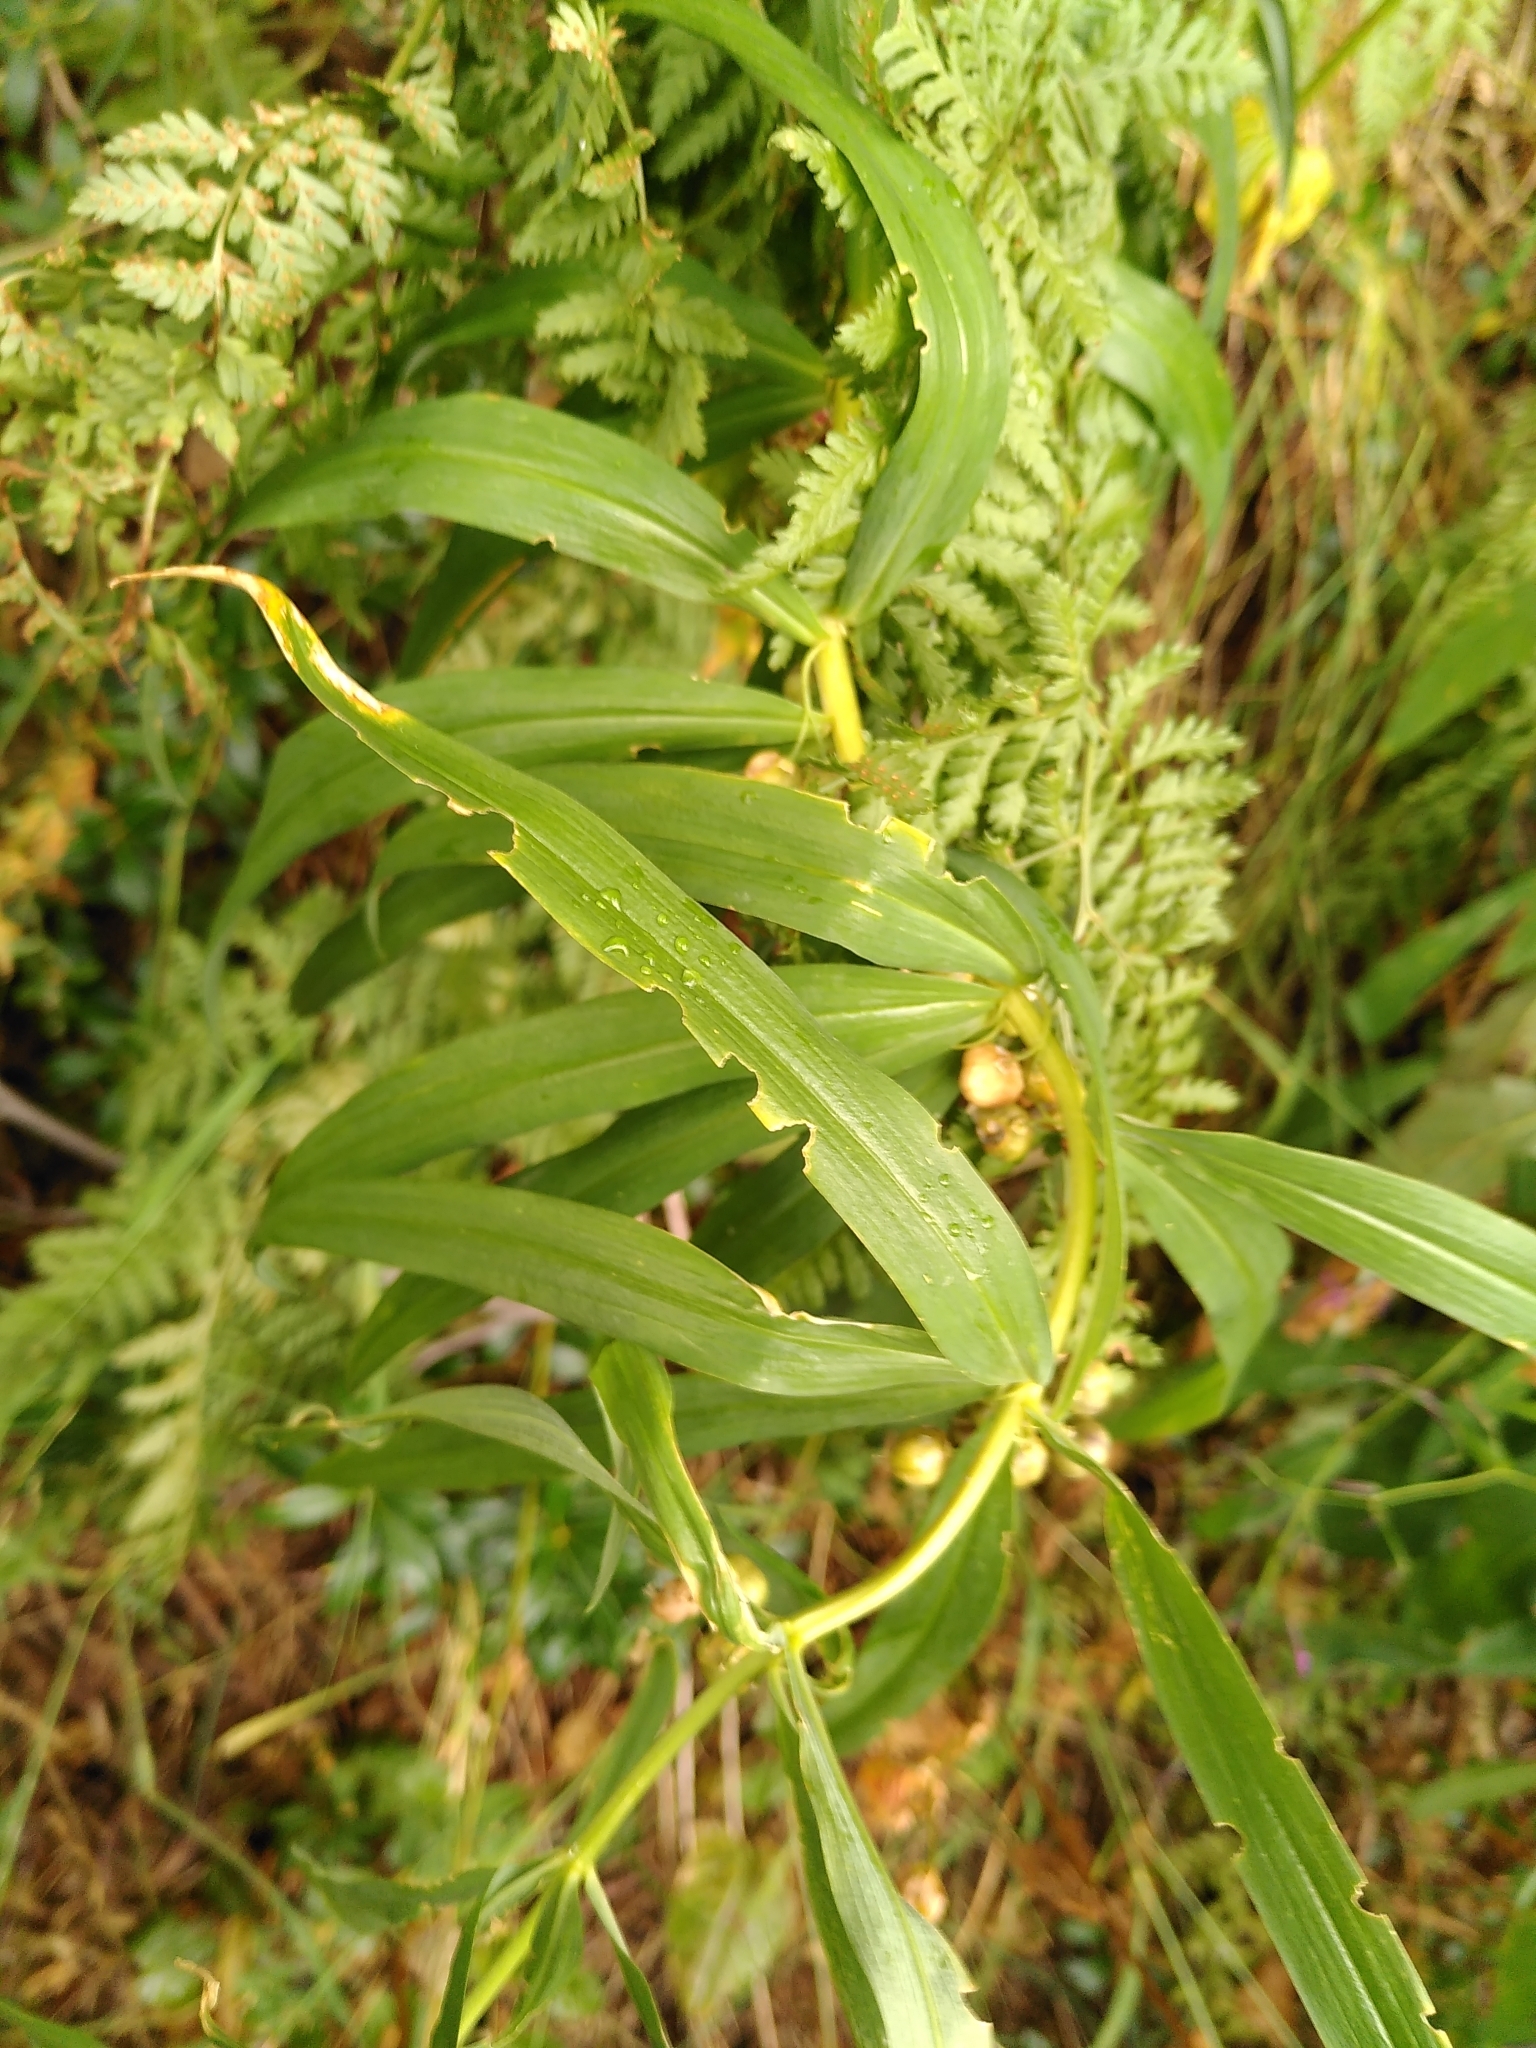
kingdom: Plantae
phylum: Tracheophyta
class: Liliopsida
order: Asparagales
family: Asparagaceae
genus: Polygonatum
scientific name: Polygonatum verticillatum
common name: Whorled solomon's-seal
